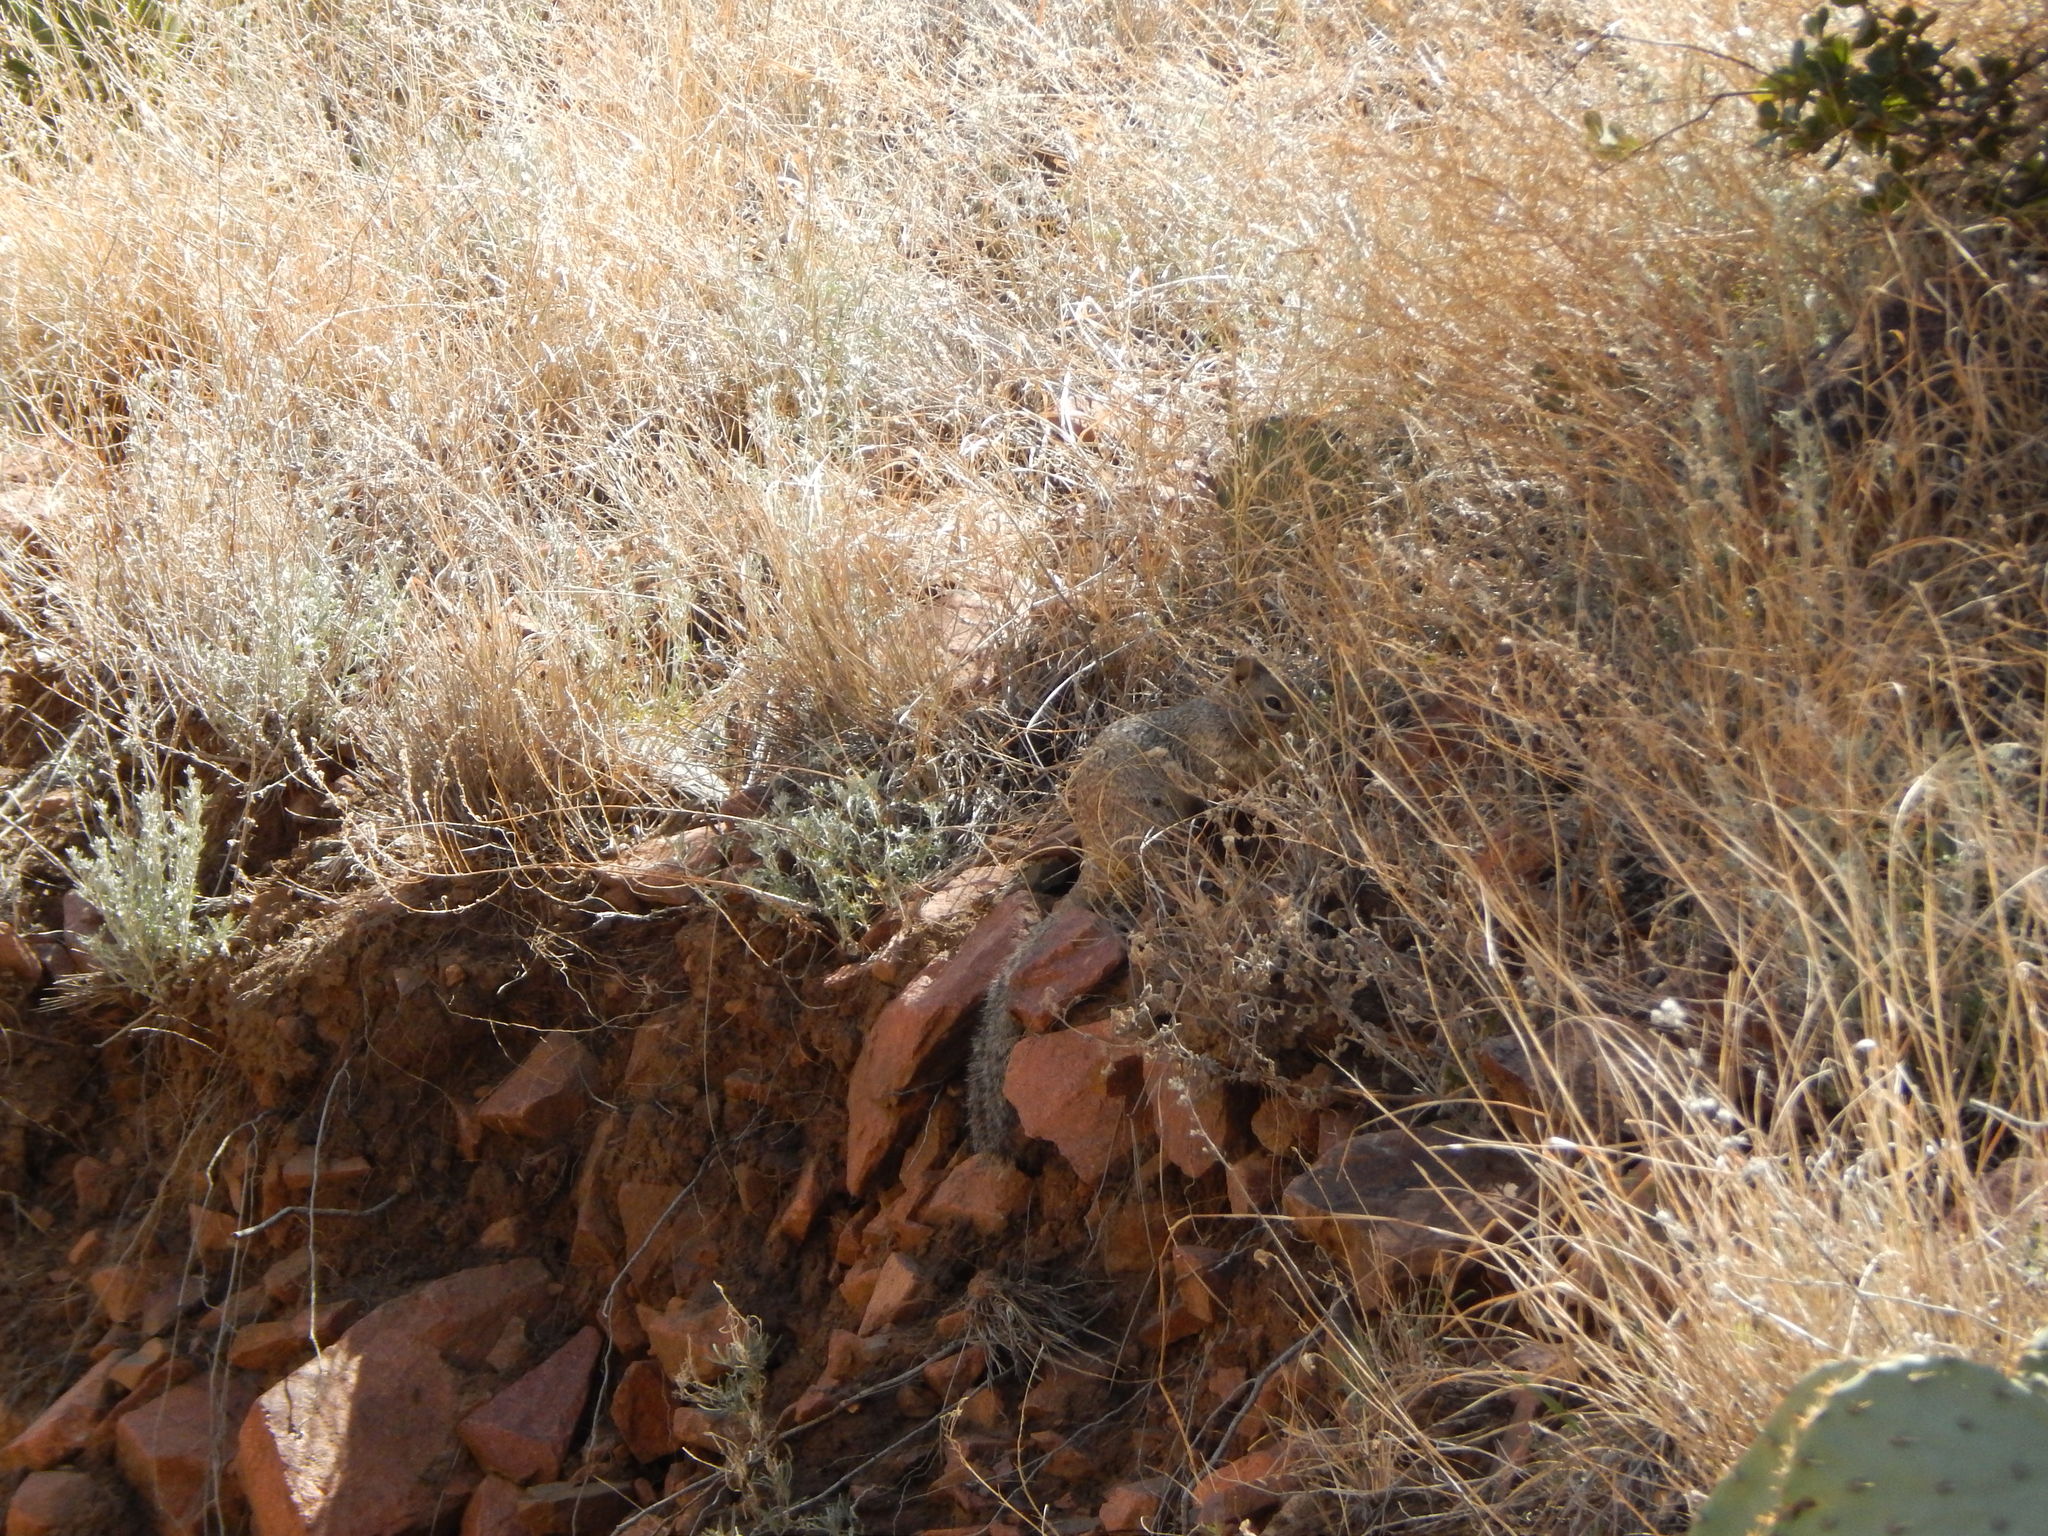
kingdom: Animalia
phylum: Chordata
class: Mammalia
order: Rodentia
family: Sciuridae
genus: Otospermophilus
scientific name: Otospermophilus variegatus
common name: Rock squirrel
